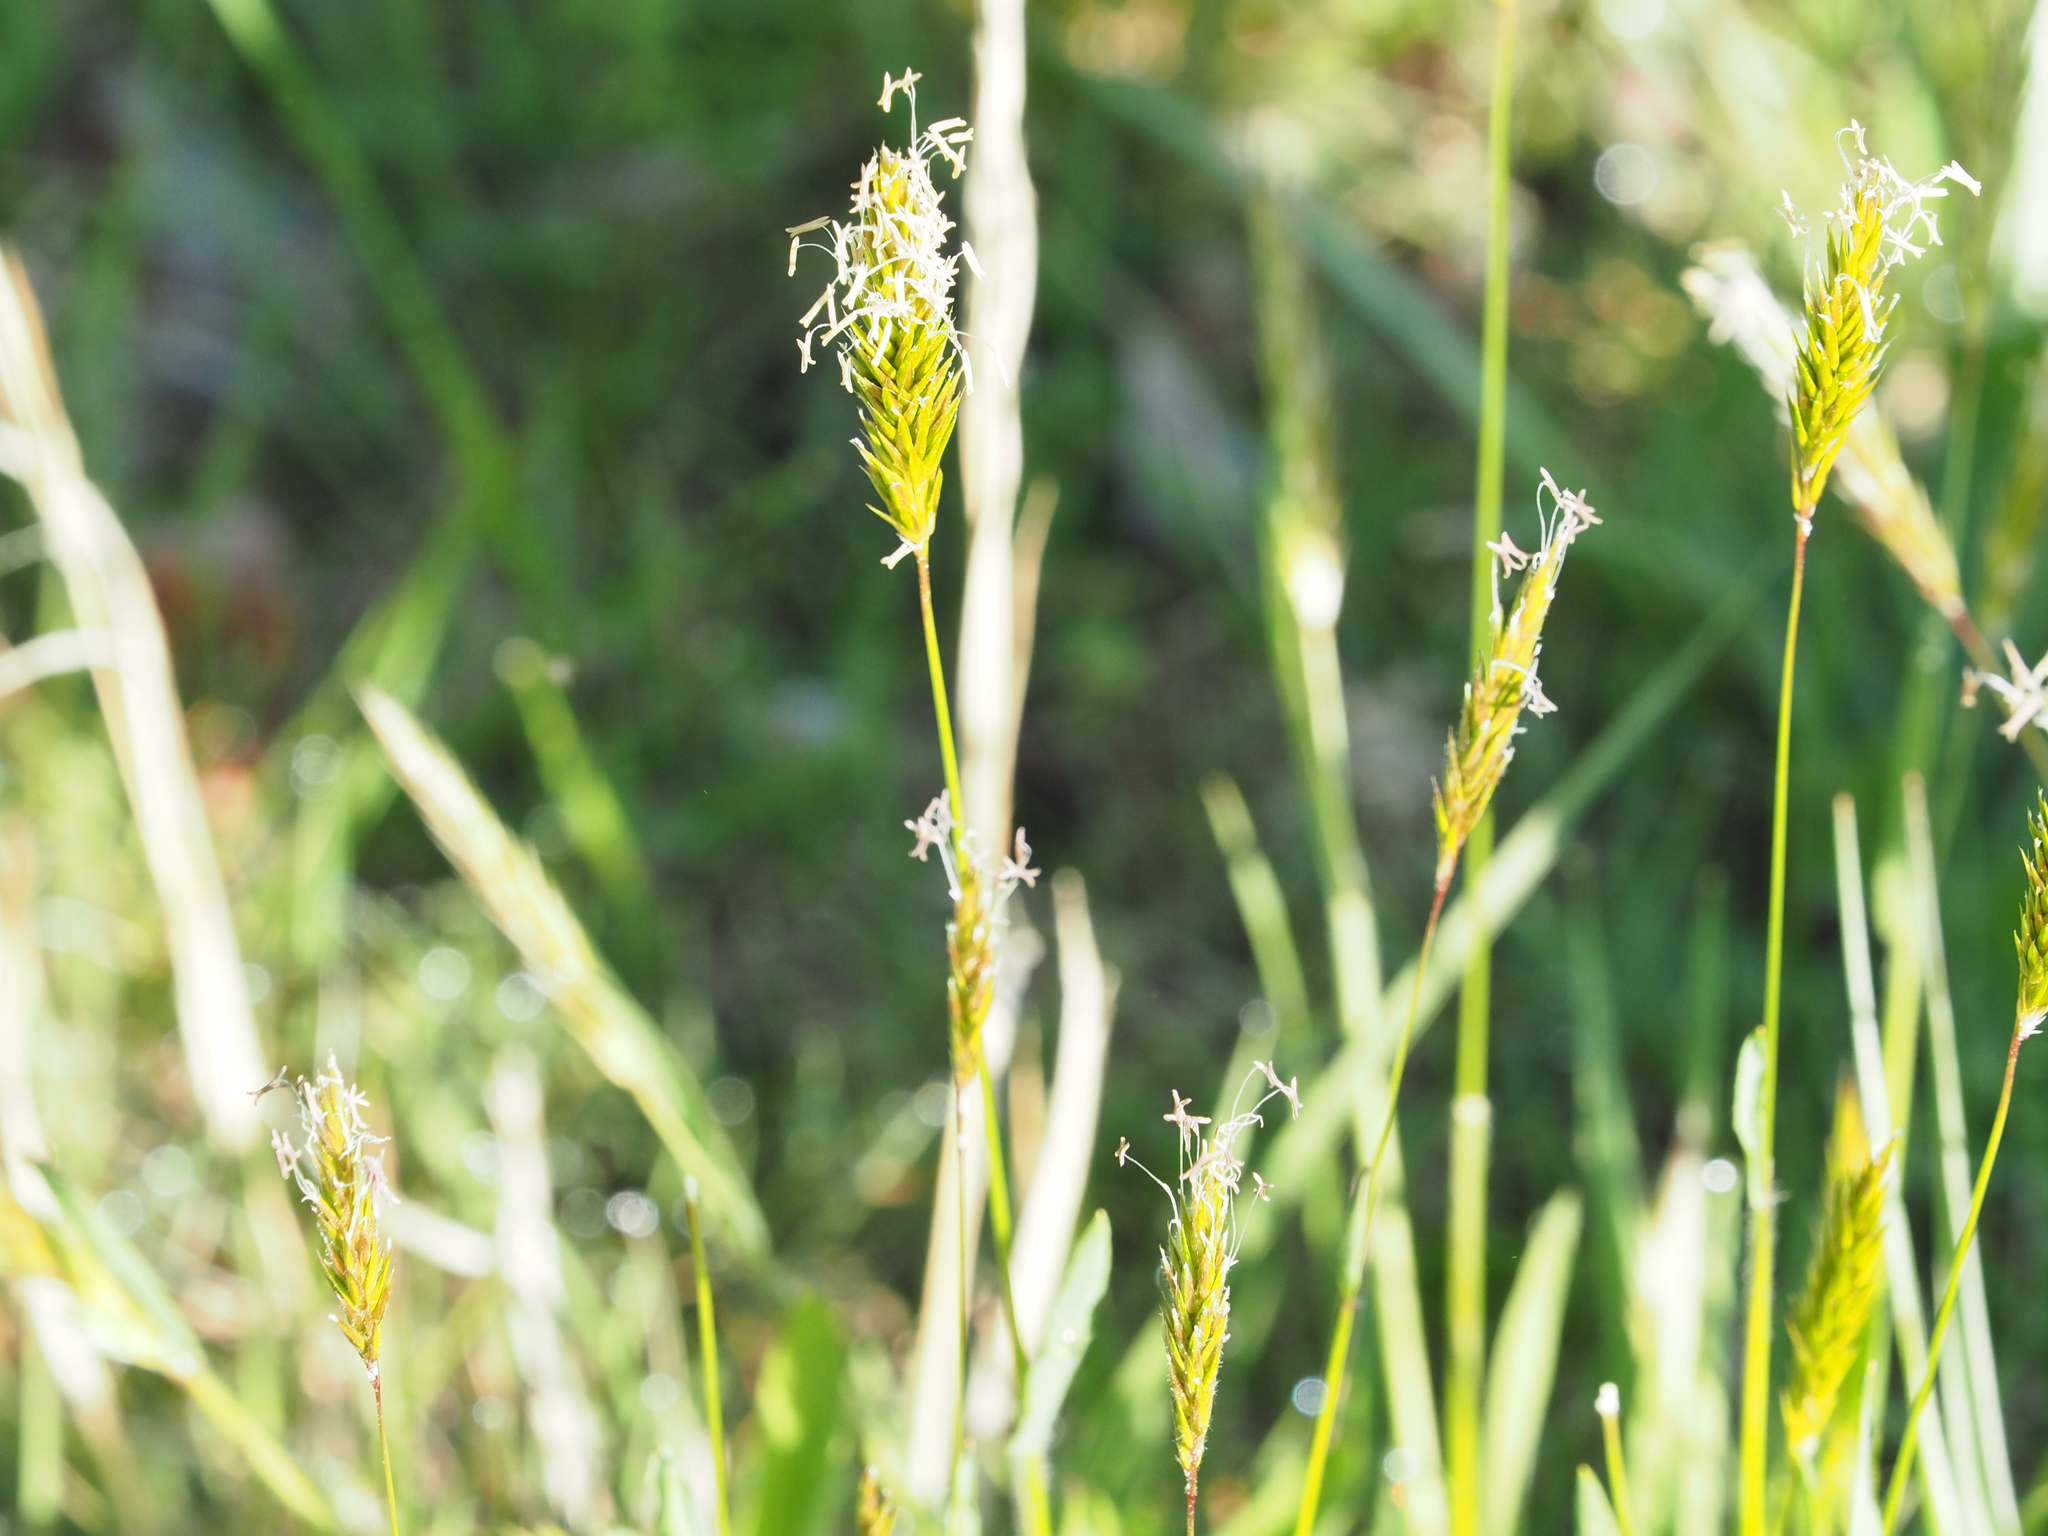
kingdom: Plantae
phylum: Tracheophyta
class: Liliopsida
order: Poales
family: Poaceae
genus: Anthoxanthum
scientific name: Anthoxanthum odoratum
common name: Sweet vernalgrass
